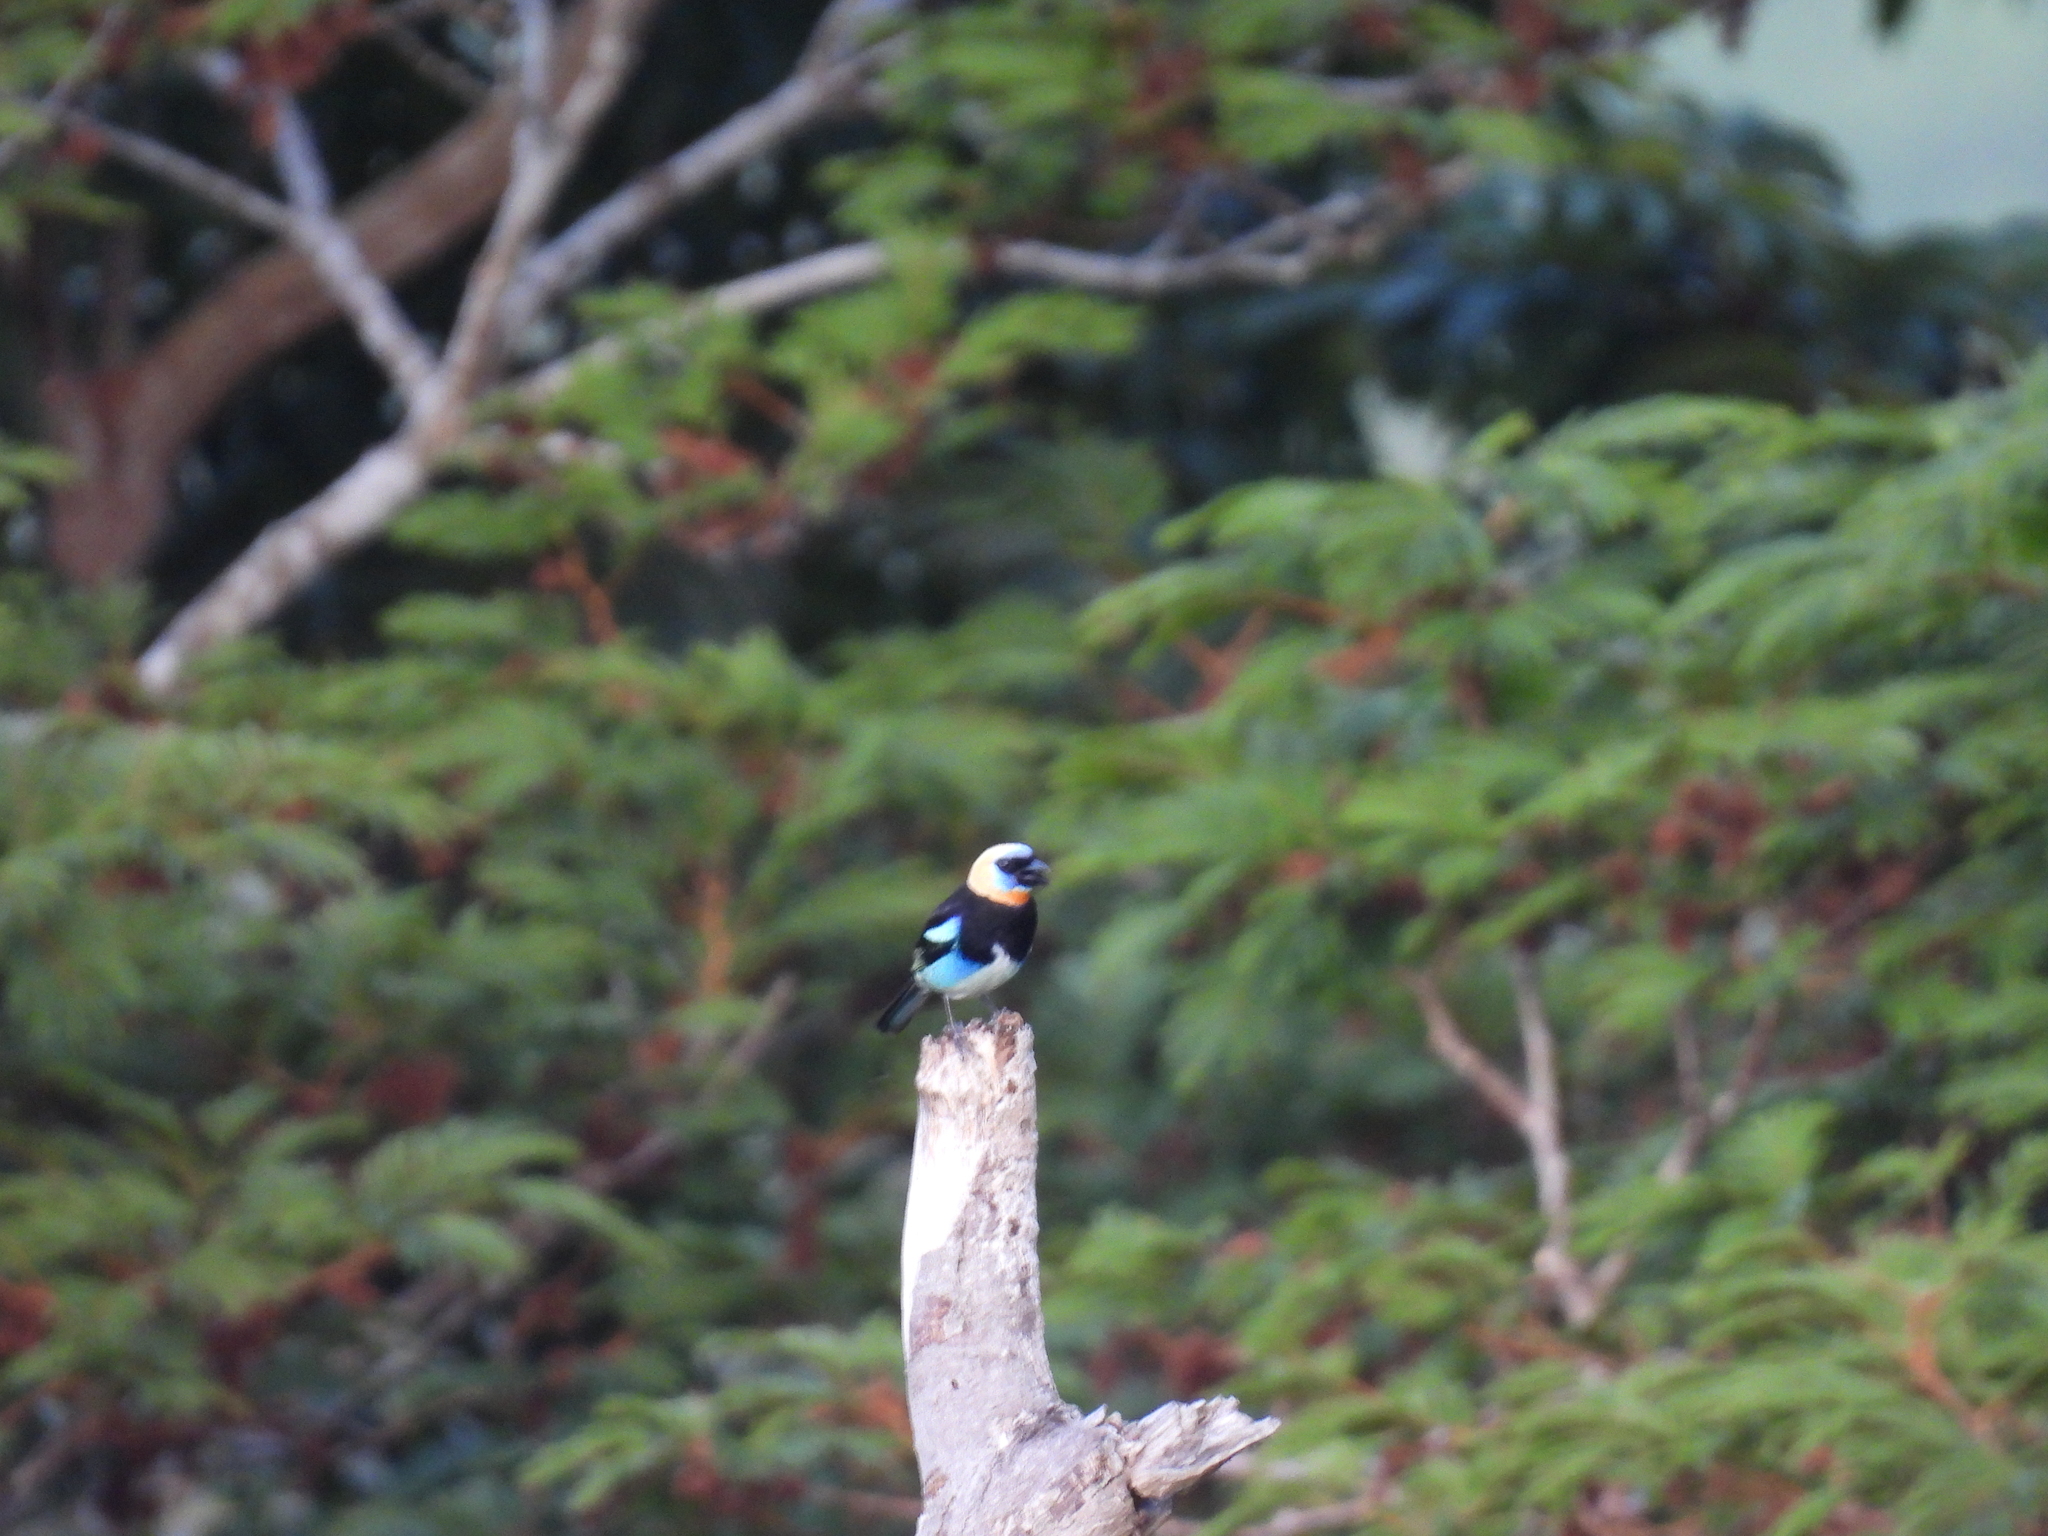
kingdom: Animalia
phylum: Chordata
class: Aves
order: Passeriformes
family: Thraupidae
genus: Stilpnia
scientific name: Stilpnia larvata
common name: Golden-hooded tanager
